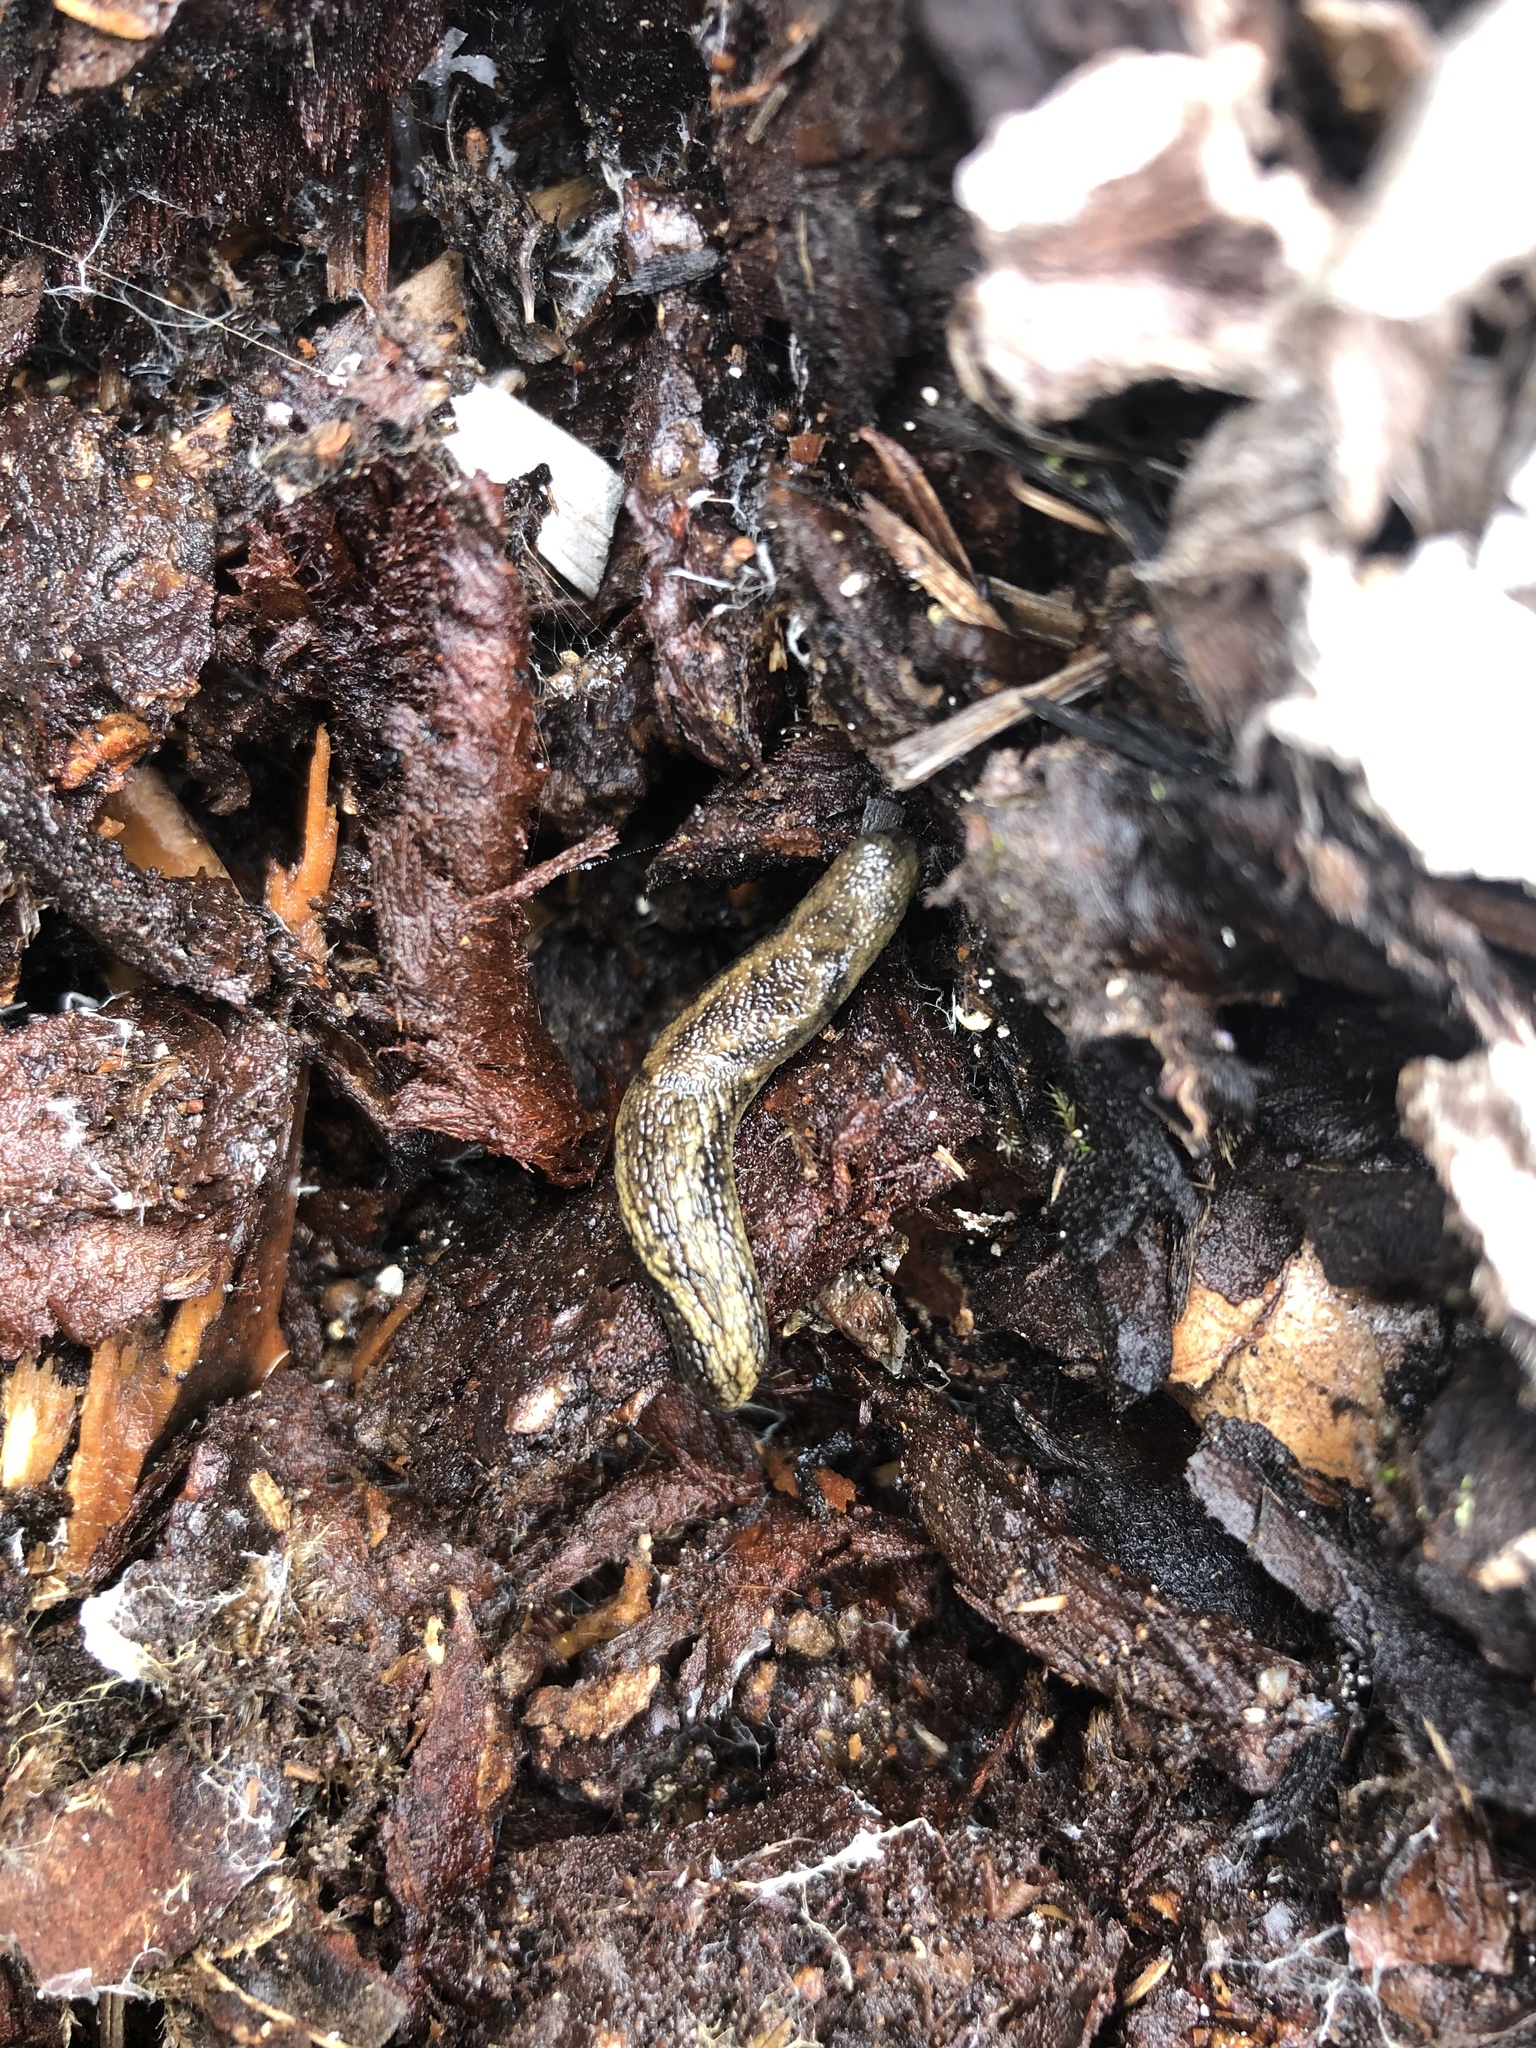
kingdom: Animalia
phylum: Mollusca
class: Gastropoda
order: Stylommatophora
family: Ariolimacidae
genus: Prophysaon
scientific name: Prophysaon vanattae
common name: Scarletback taildropper
